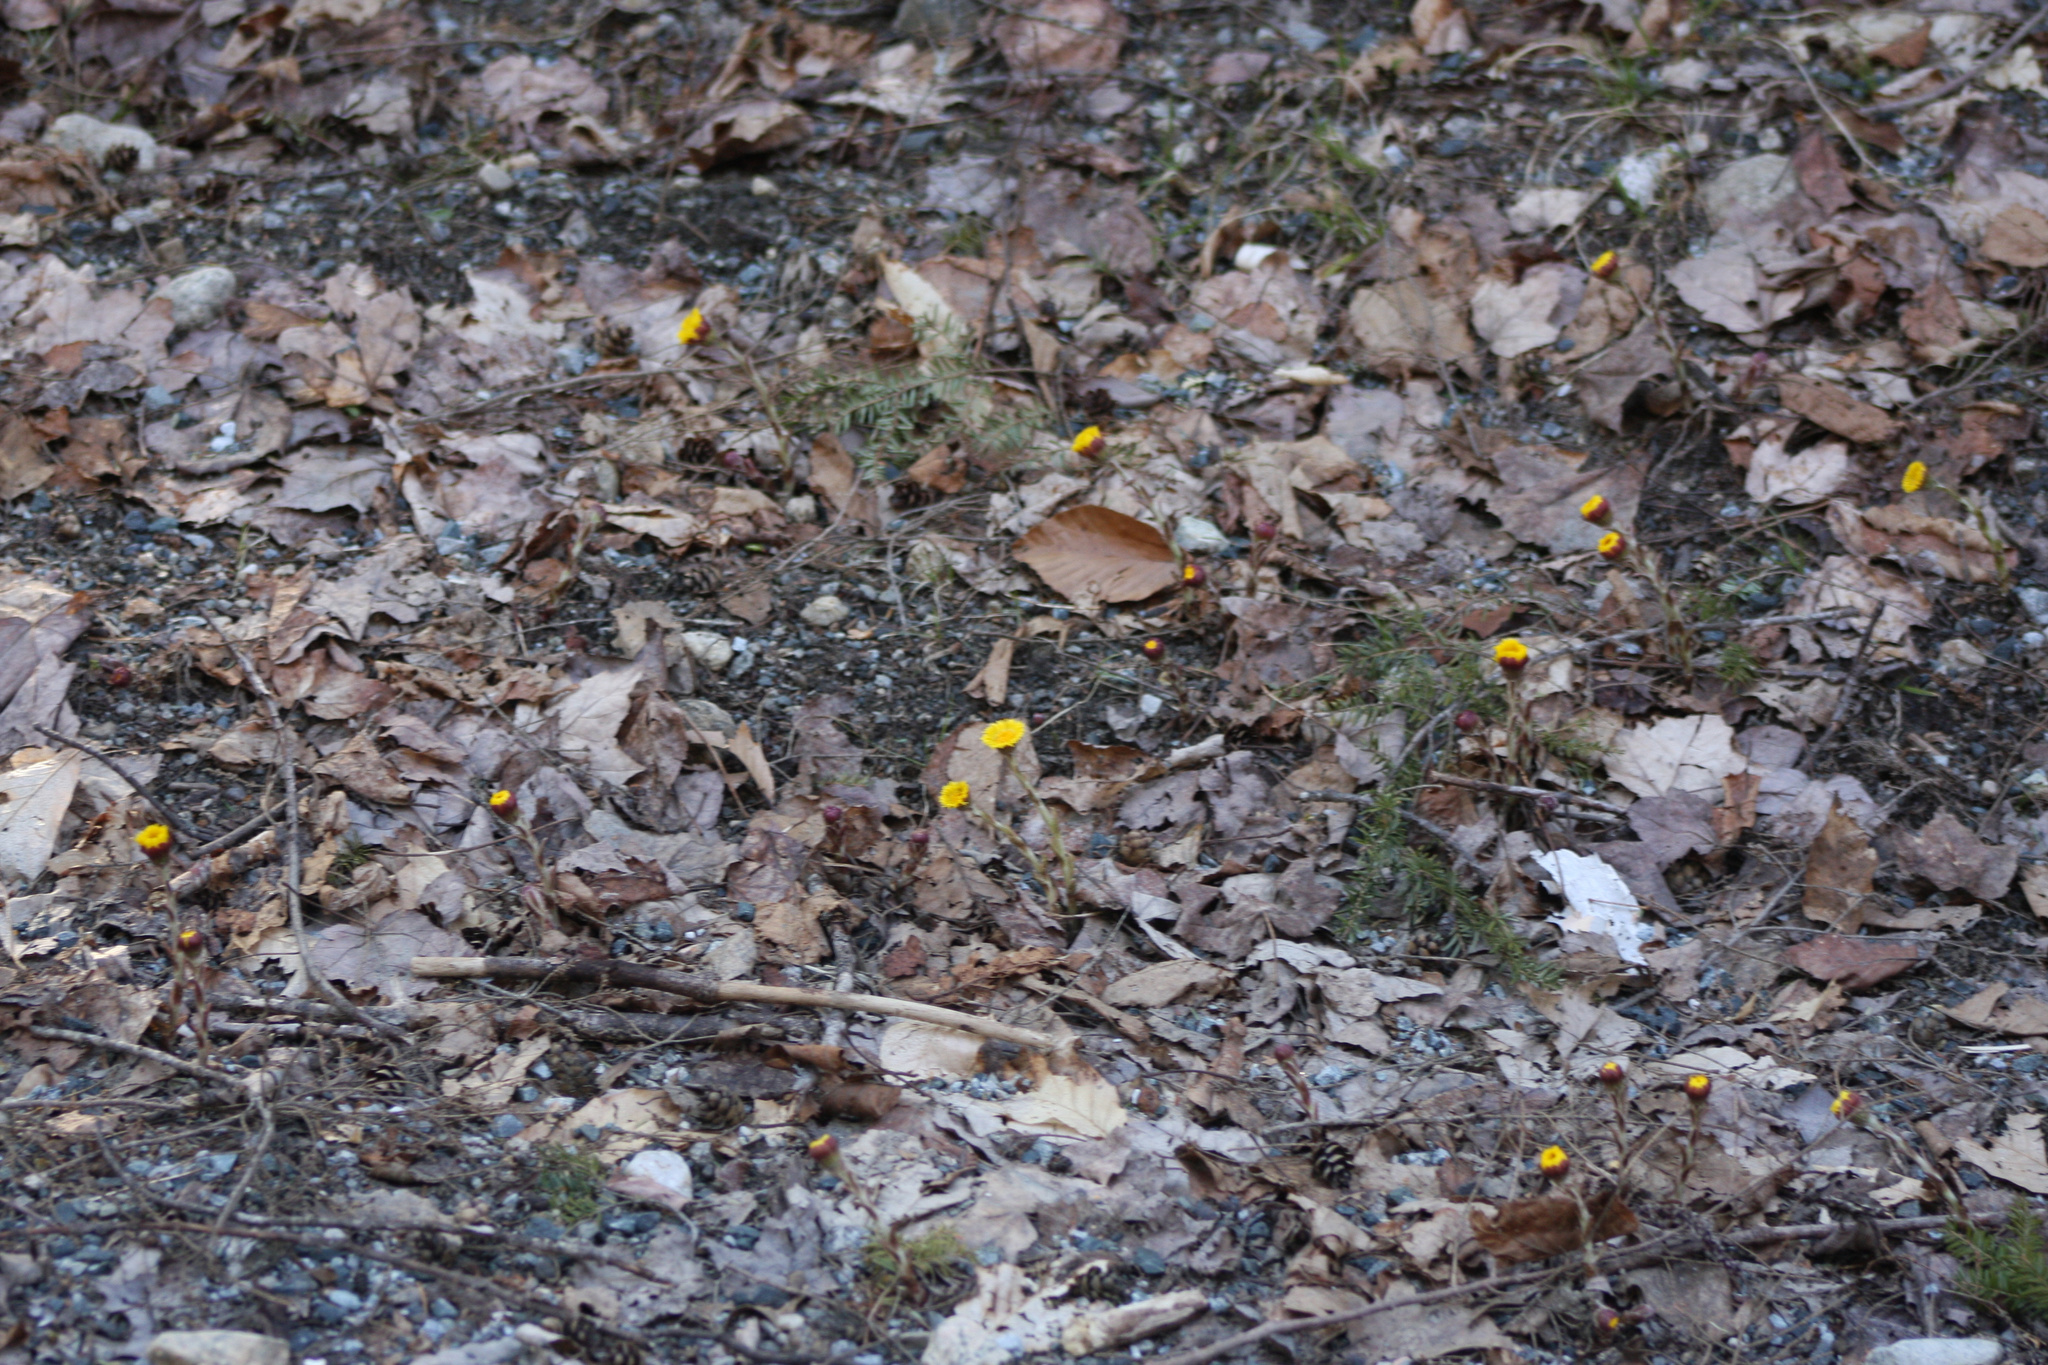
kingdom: Plantae
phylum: Tracheophyta
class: Magnoliopsida
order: Asterales
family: Asteraceae
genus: Tussilago
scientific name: Tussilago farfara
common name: Coltsfoot
